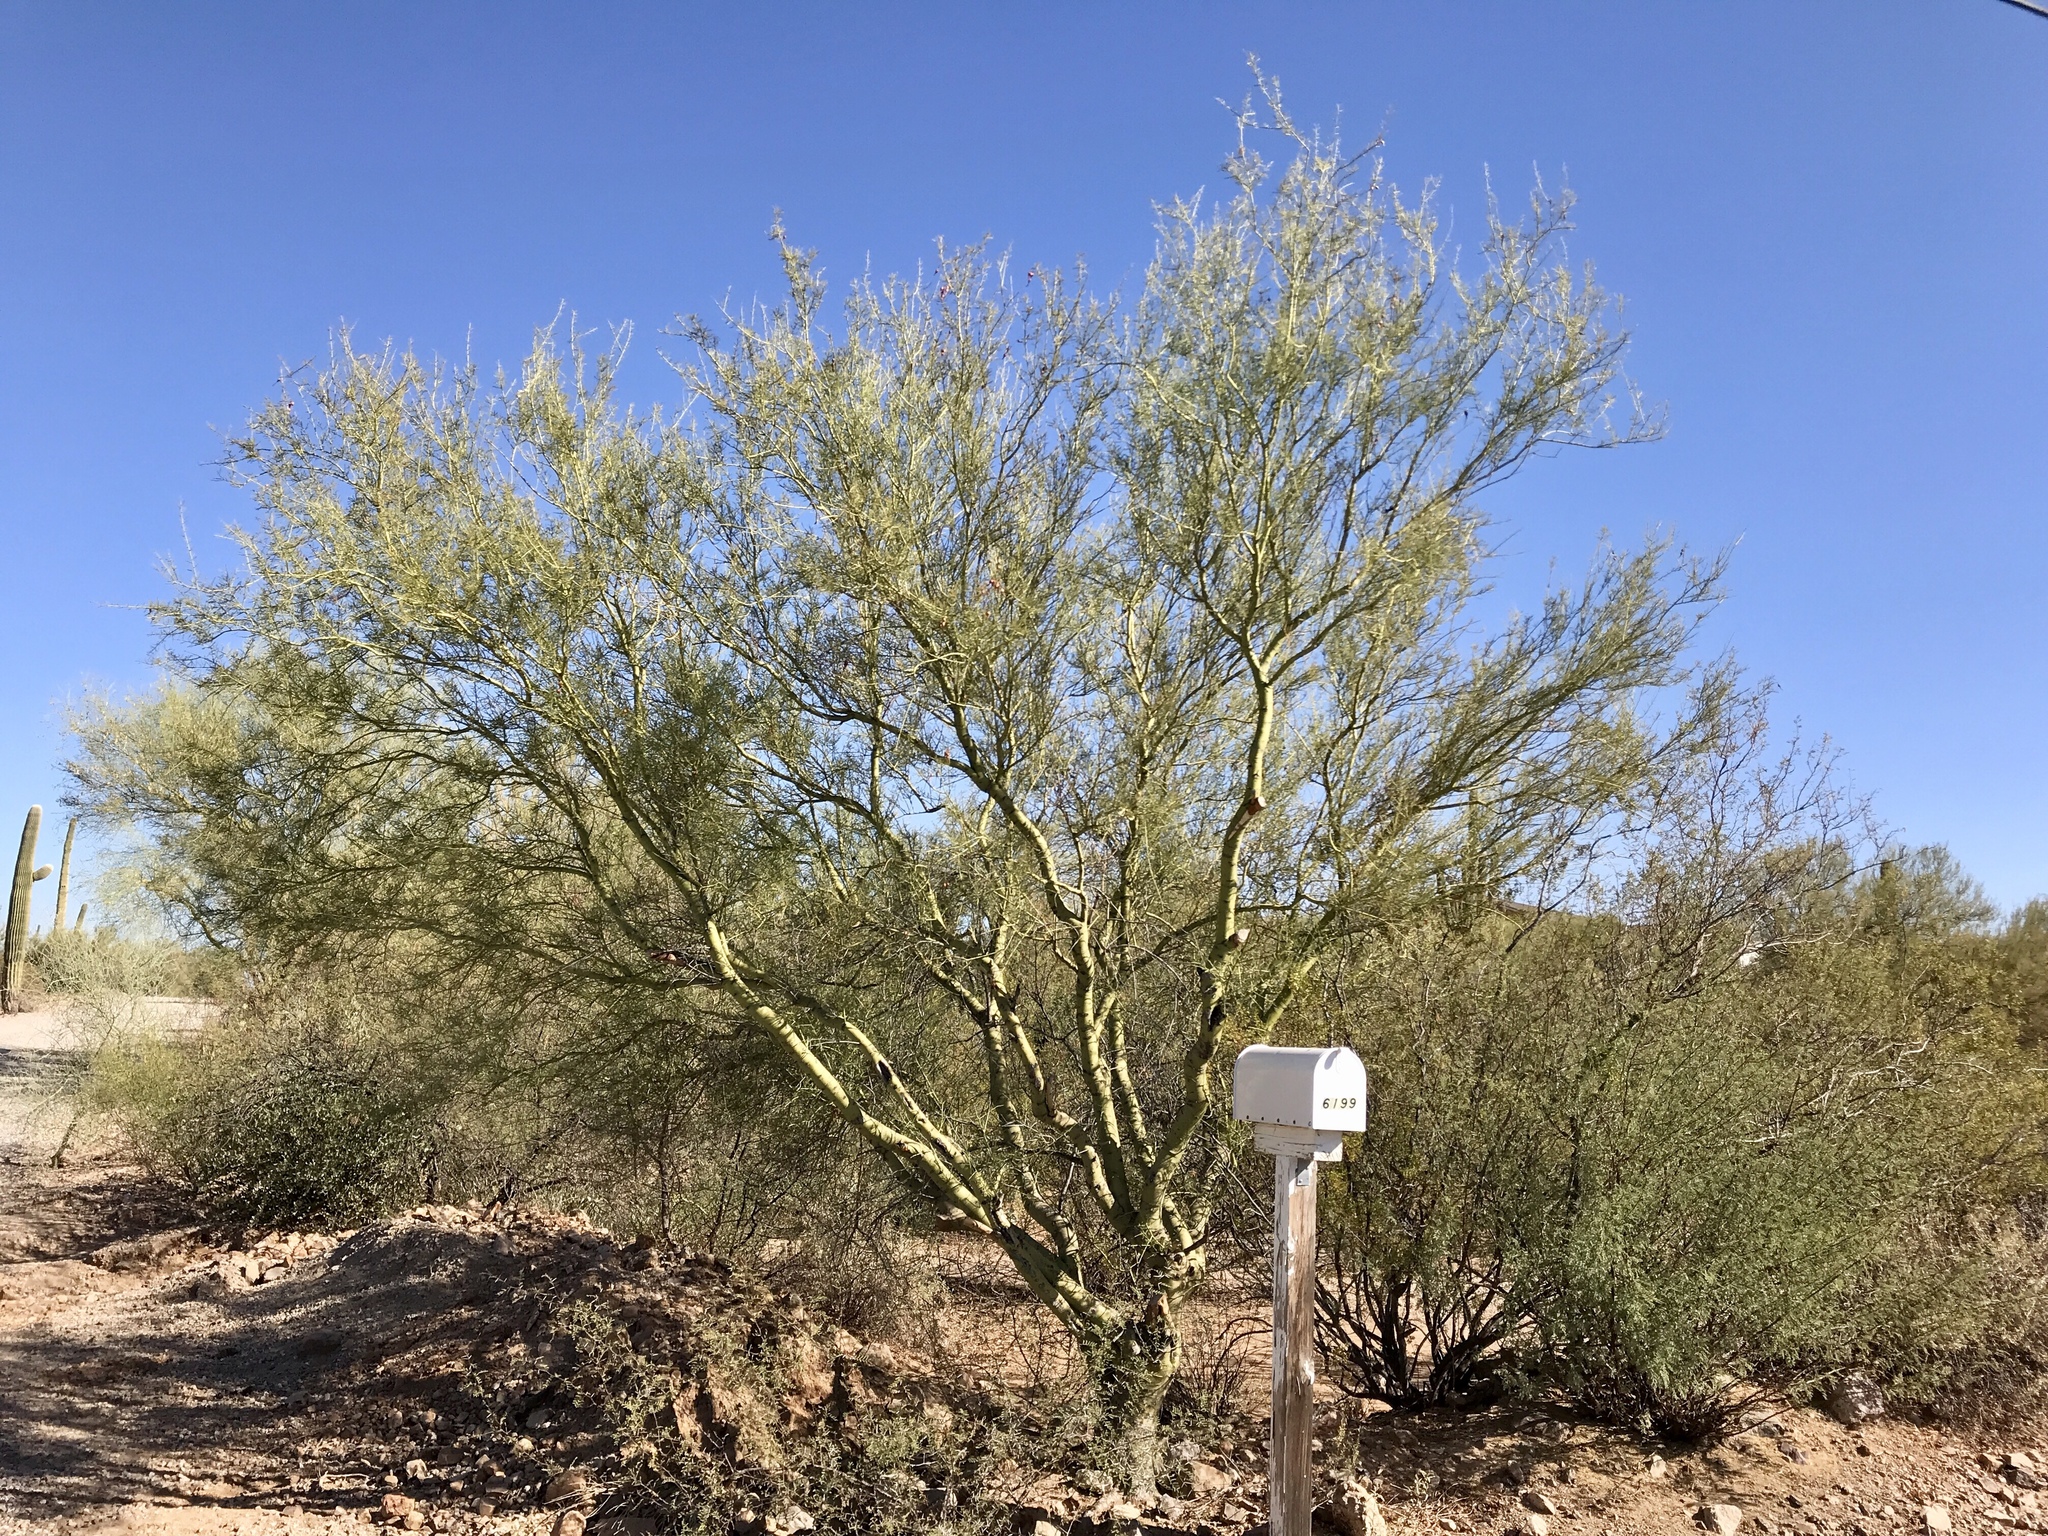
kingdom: Plantae
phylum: Tracheophyta
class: Magnoliopsida
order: Fabales
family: Fabaceae
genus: Parkinsonia
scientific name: Parkinsonia florida
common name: Blue paloverde
